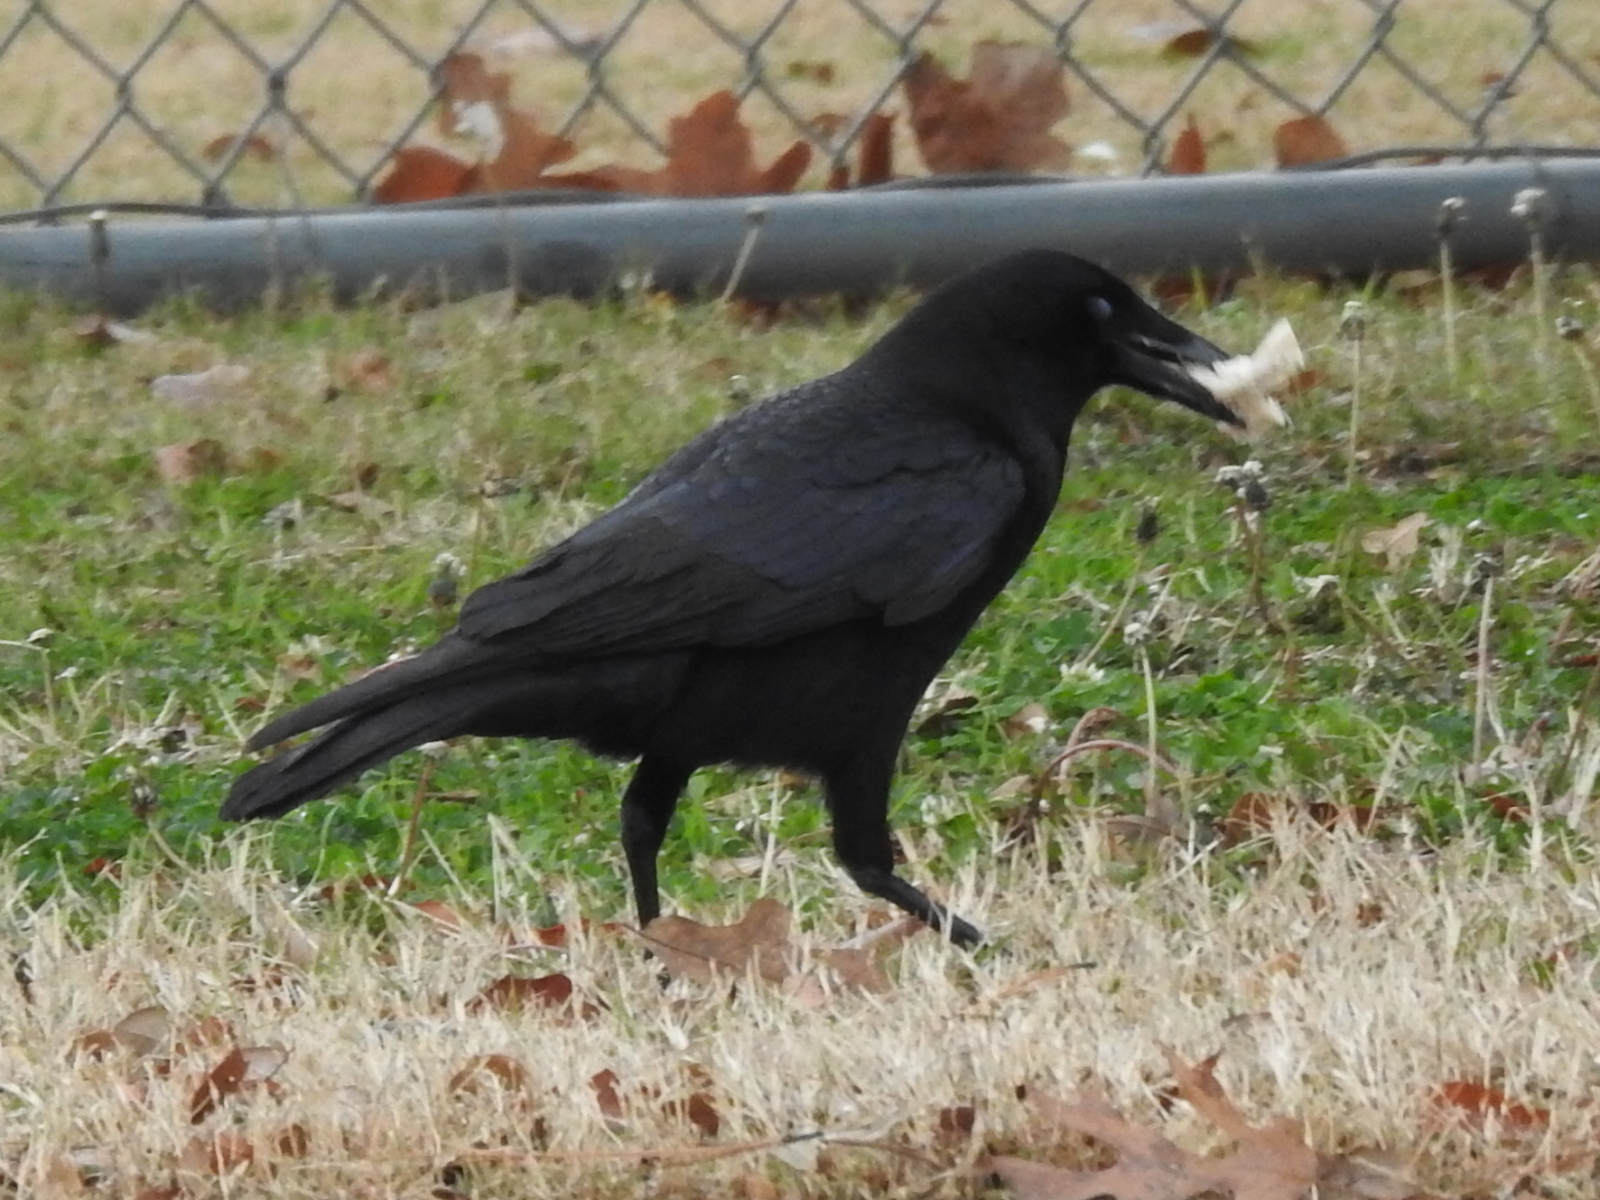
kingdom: Animalia
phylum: Chordata
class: Aves
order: Passeriformes
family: Corvidae
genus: Corvus
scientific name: Corvus brachyrhynchos
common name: American crow
